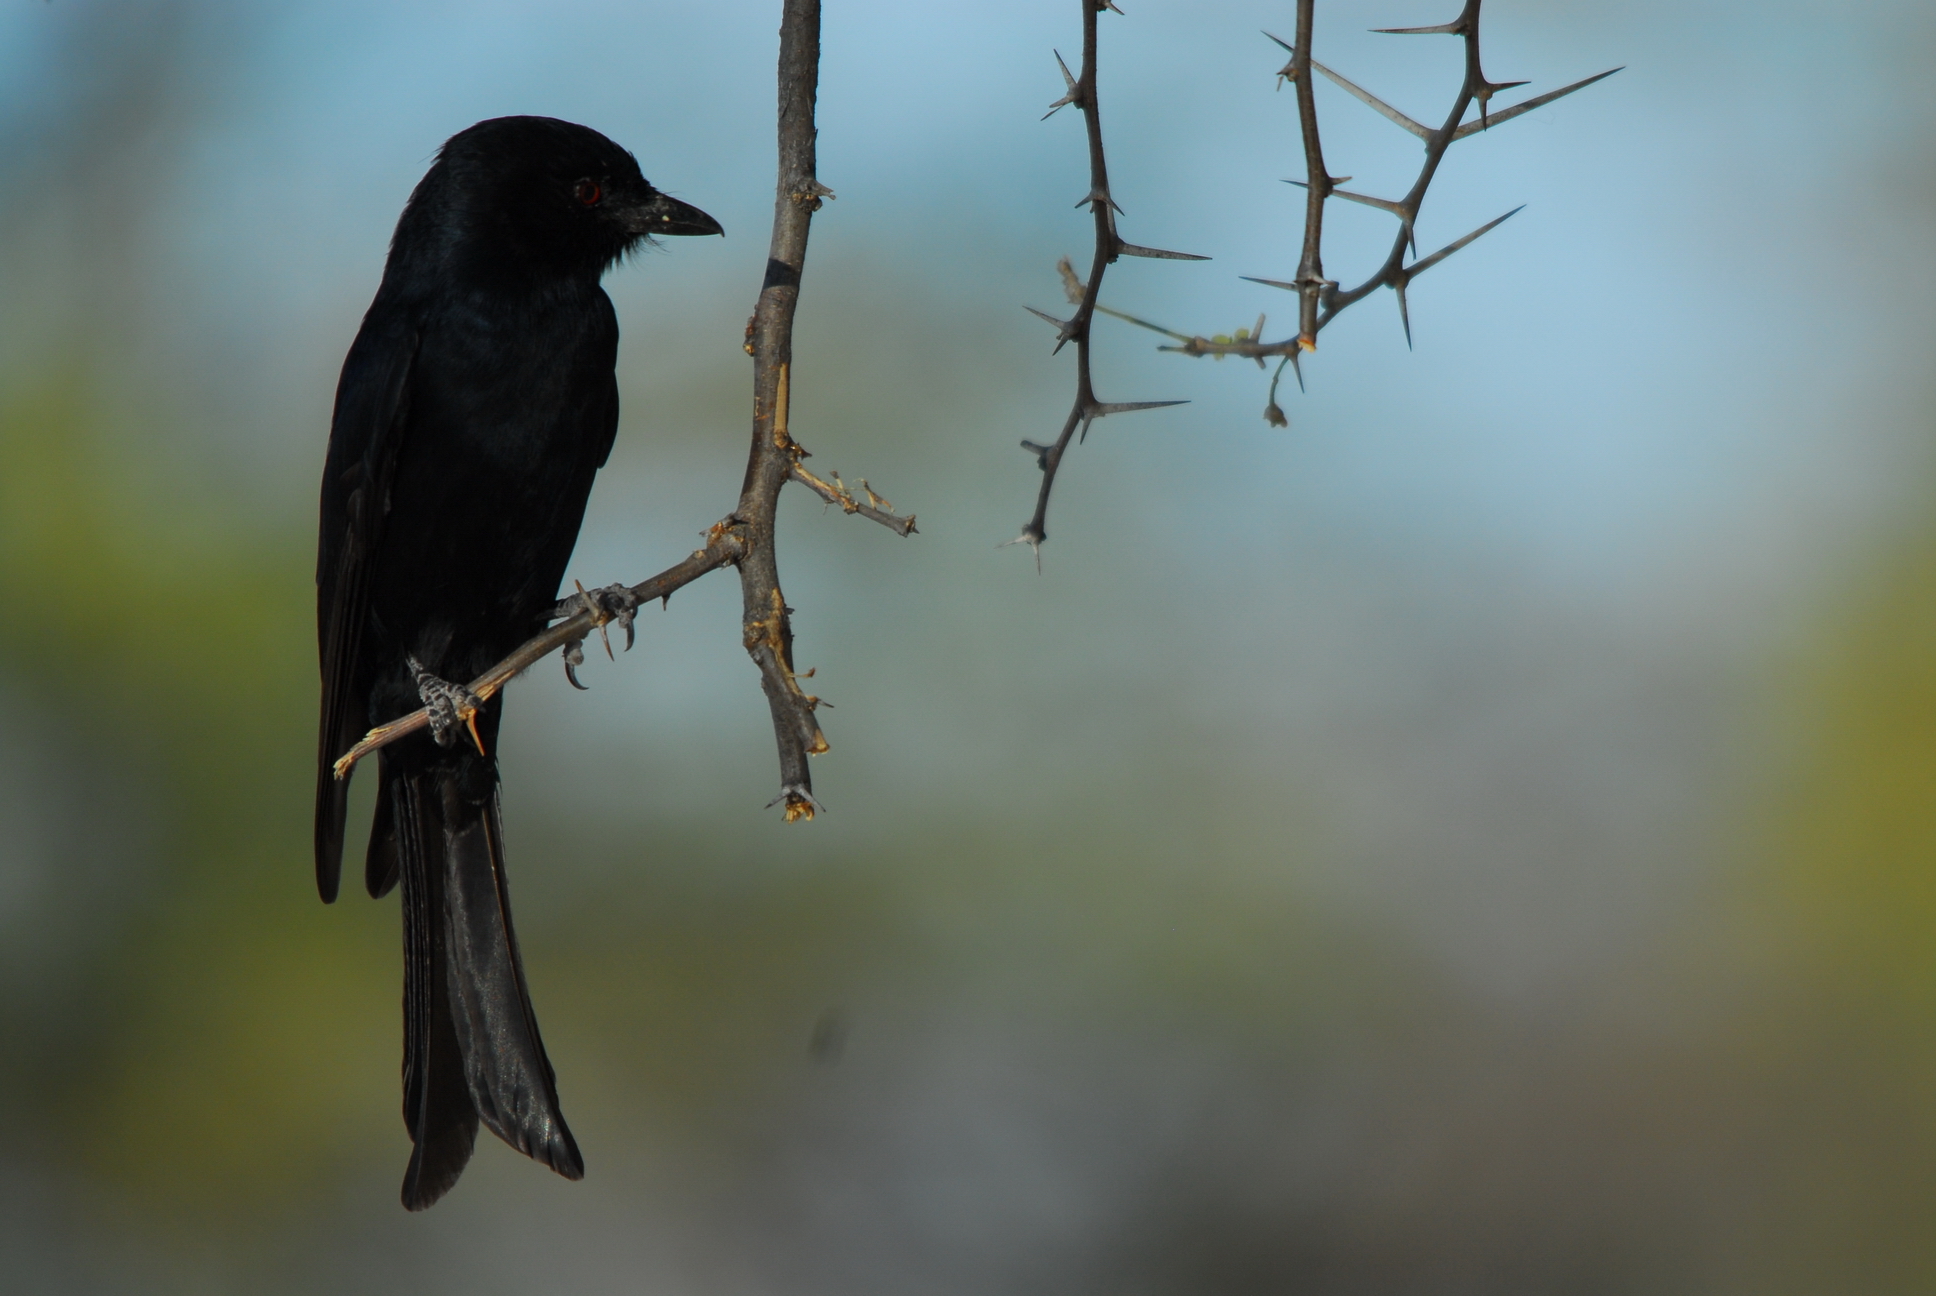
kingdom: Animalia
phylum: Chordata
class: Aves
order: Passeriformes
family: Dicruridae
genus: Dicrurus
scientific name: Dicrurus adsimilis
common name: Fork-tailed drongo
